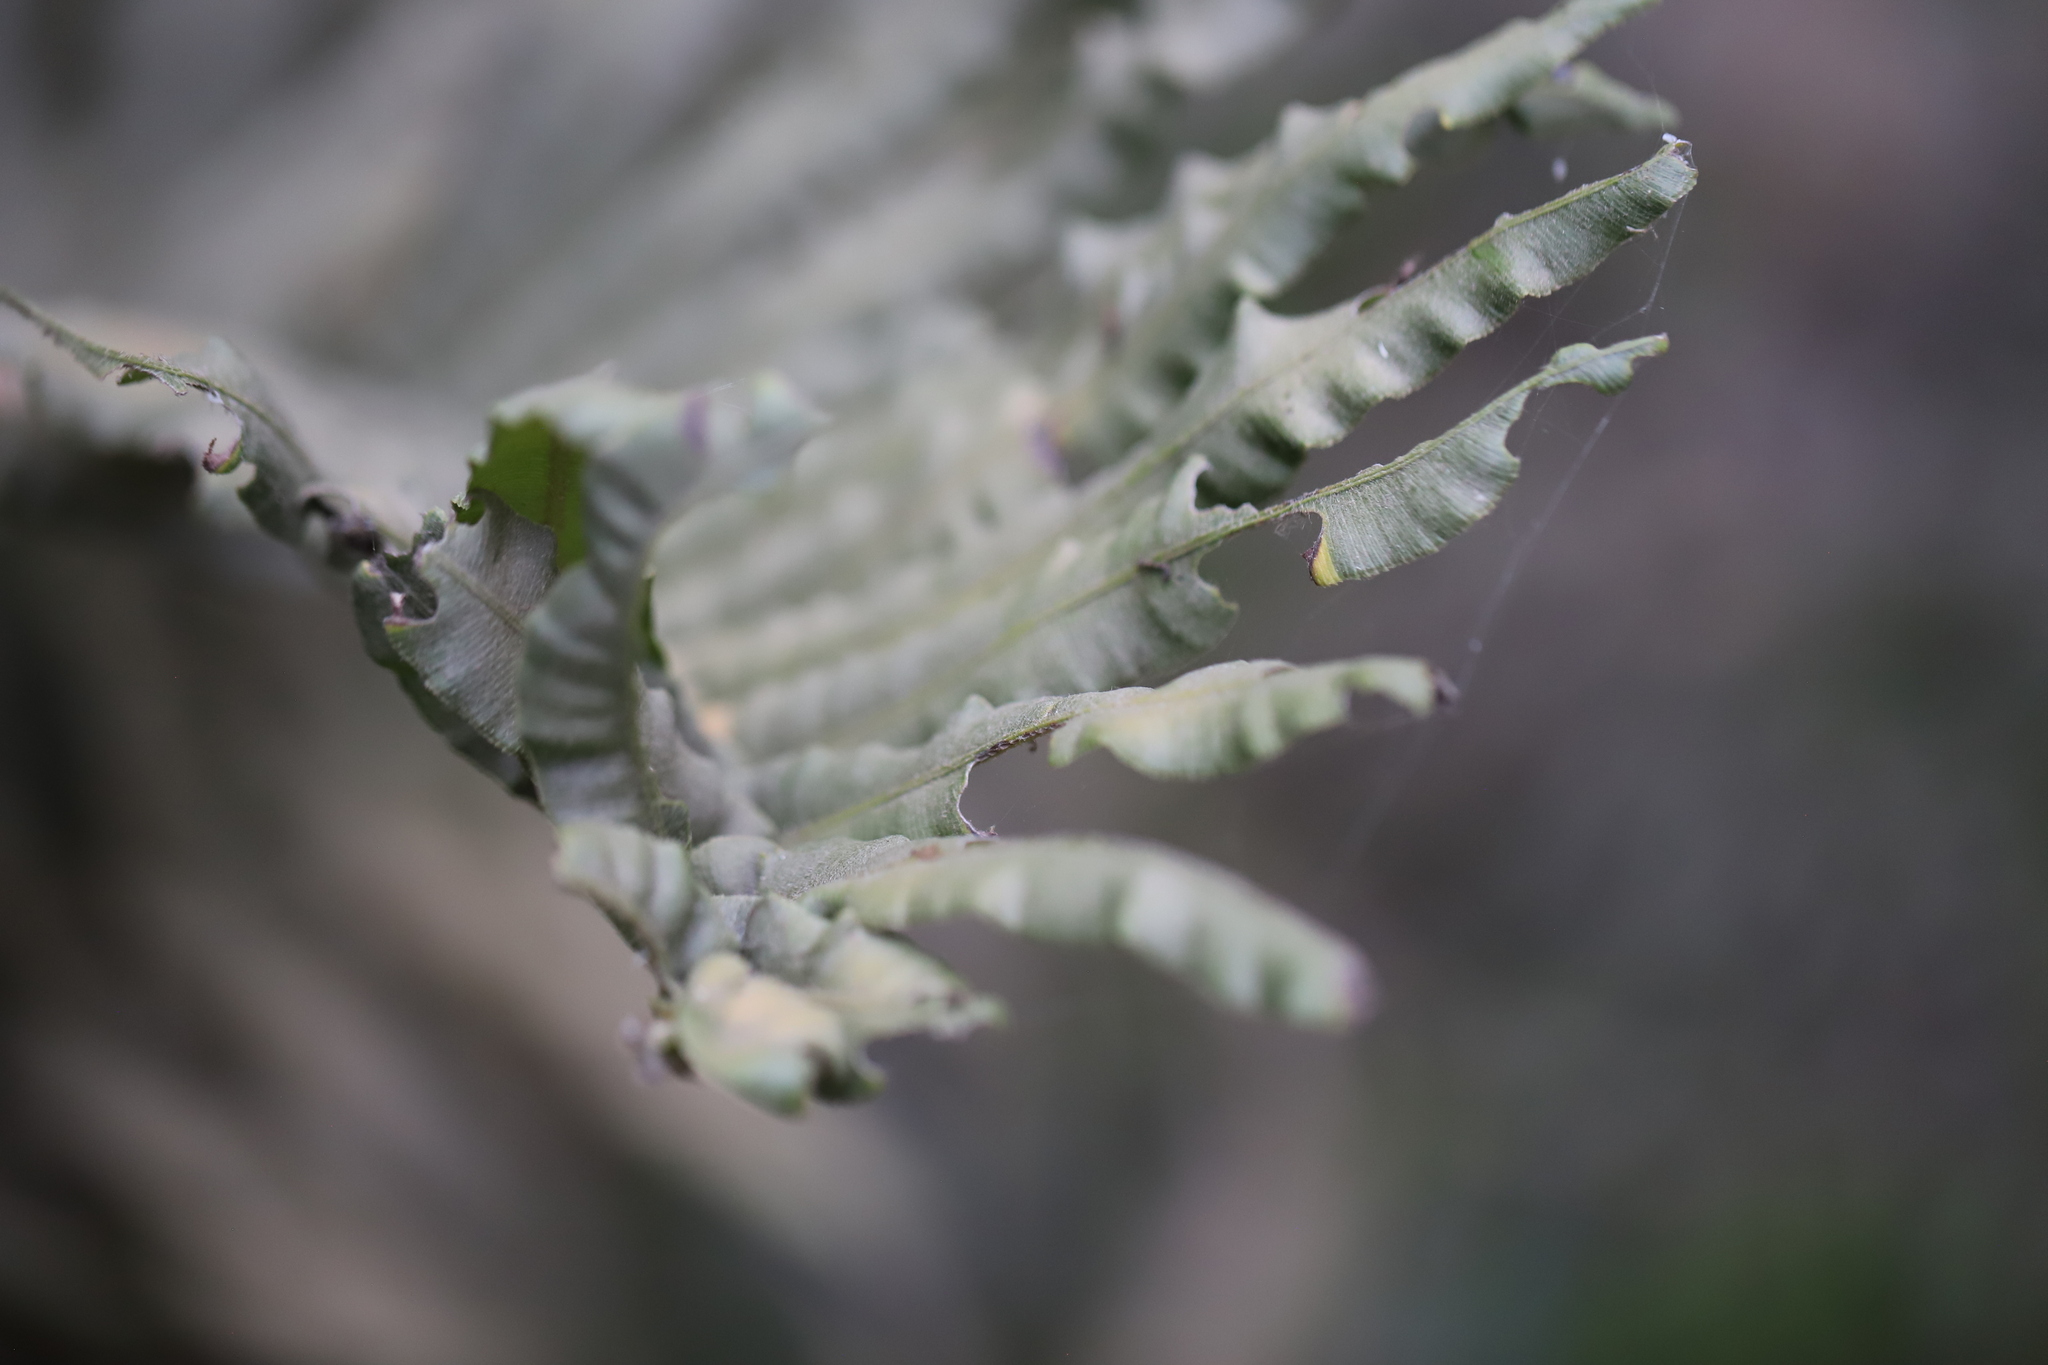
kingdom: Plantae
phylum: Tracheophyta
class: Polypodiopsida
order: Polypodiales
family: Blechnaceae
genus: Parablechnum
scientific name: Parablechnum chilense
